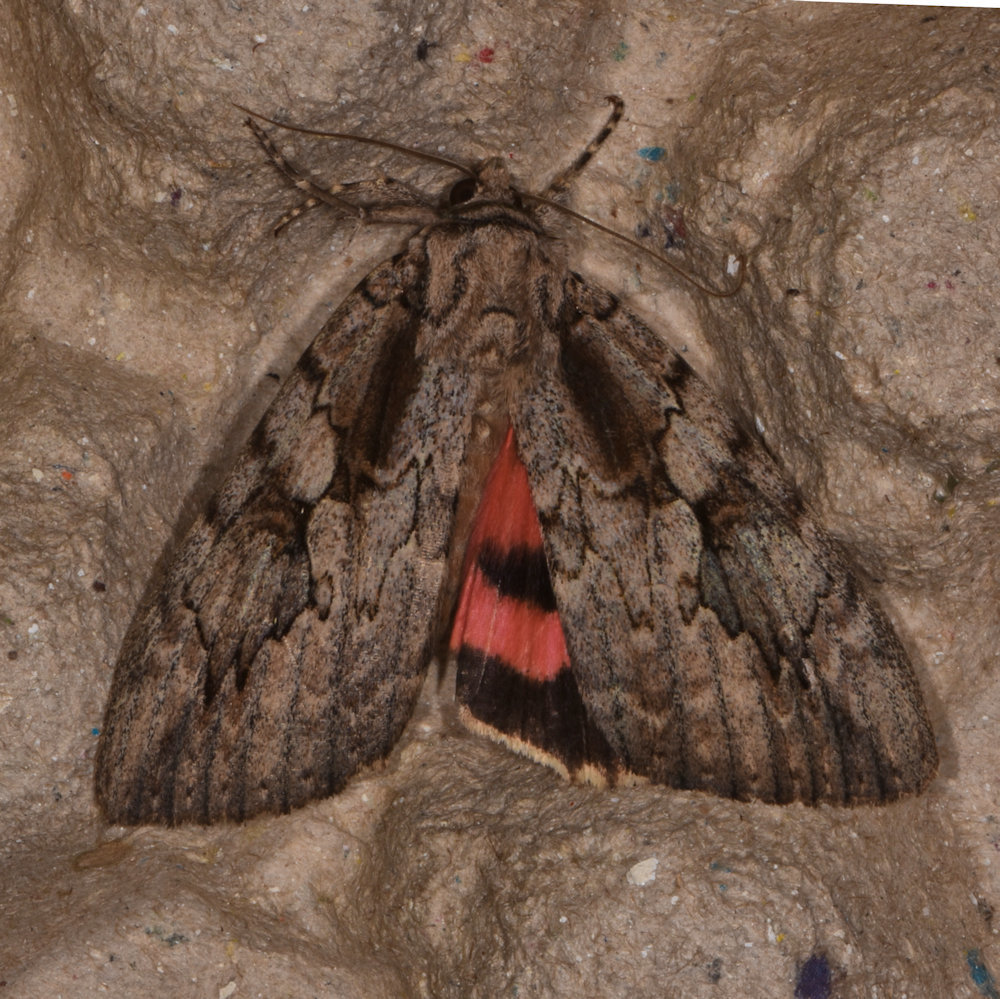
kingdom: Animalia
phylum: Arthropoda
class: Insecta
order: Lepidoptera
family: Erebidae
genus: Catocala
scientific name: Catocala amatrix
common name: Sweetheart underwing
